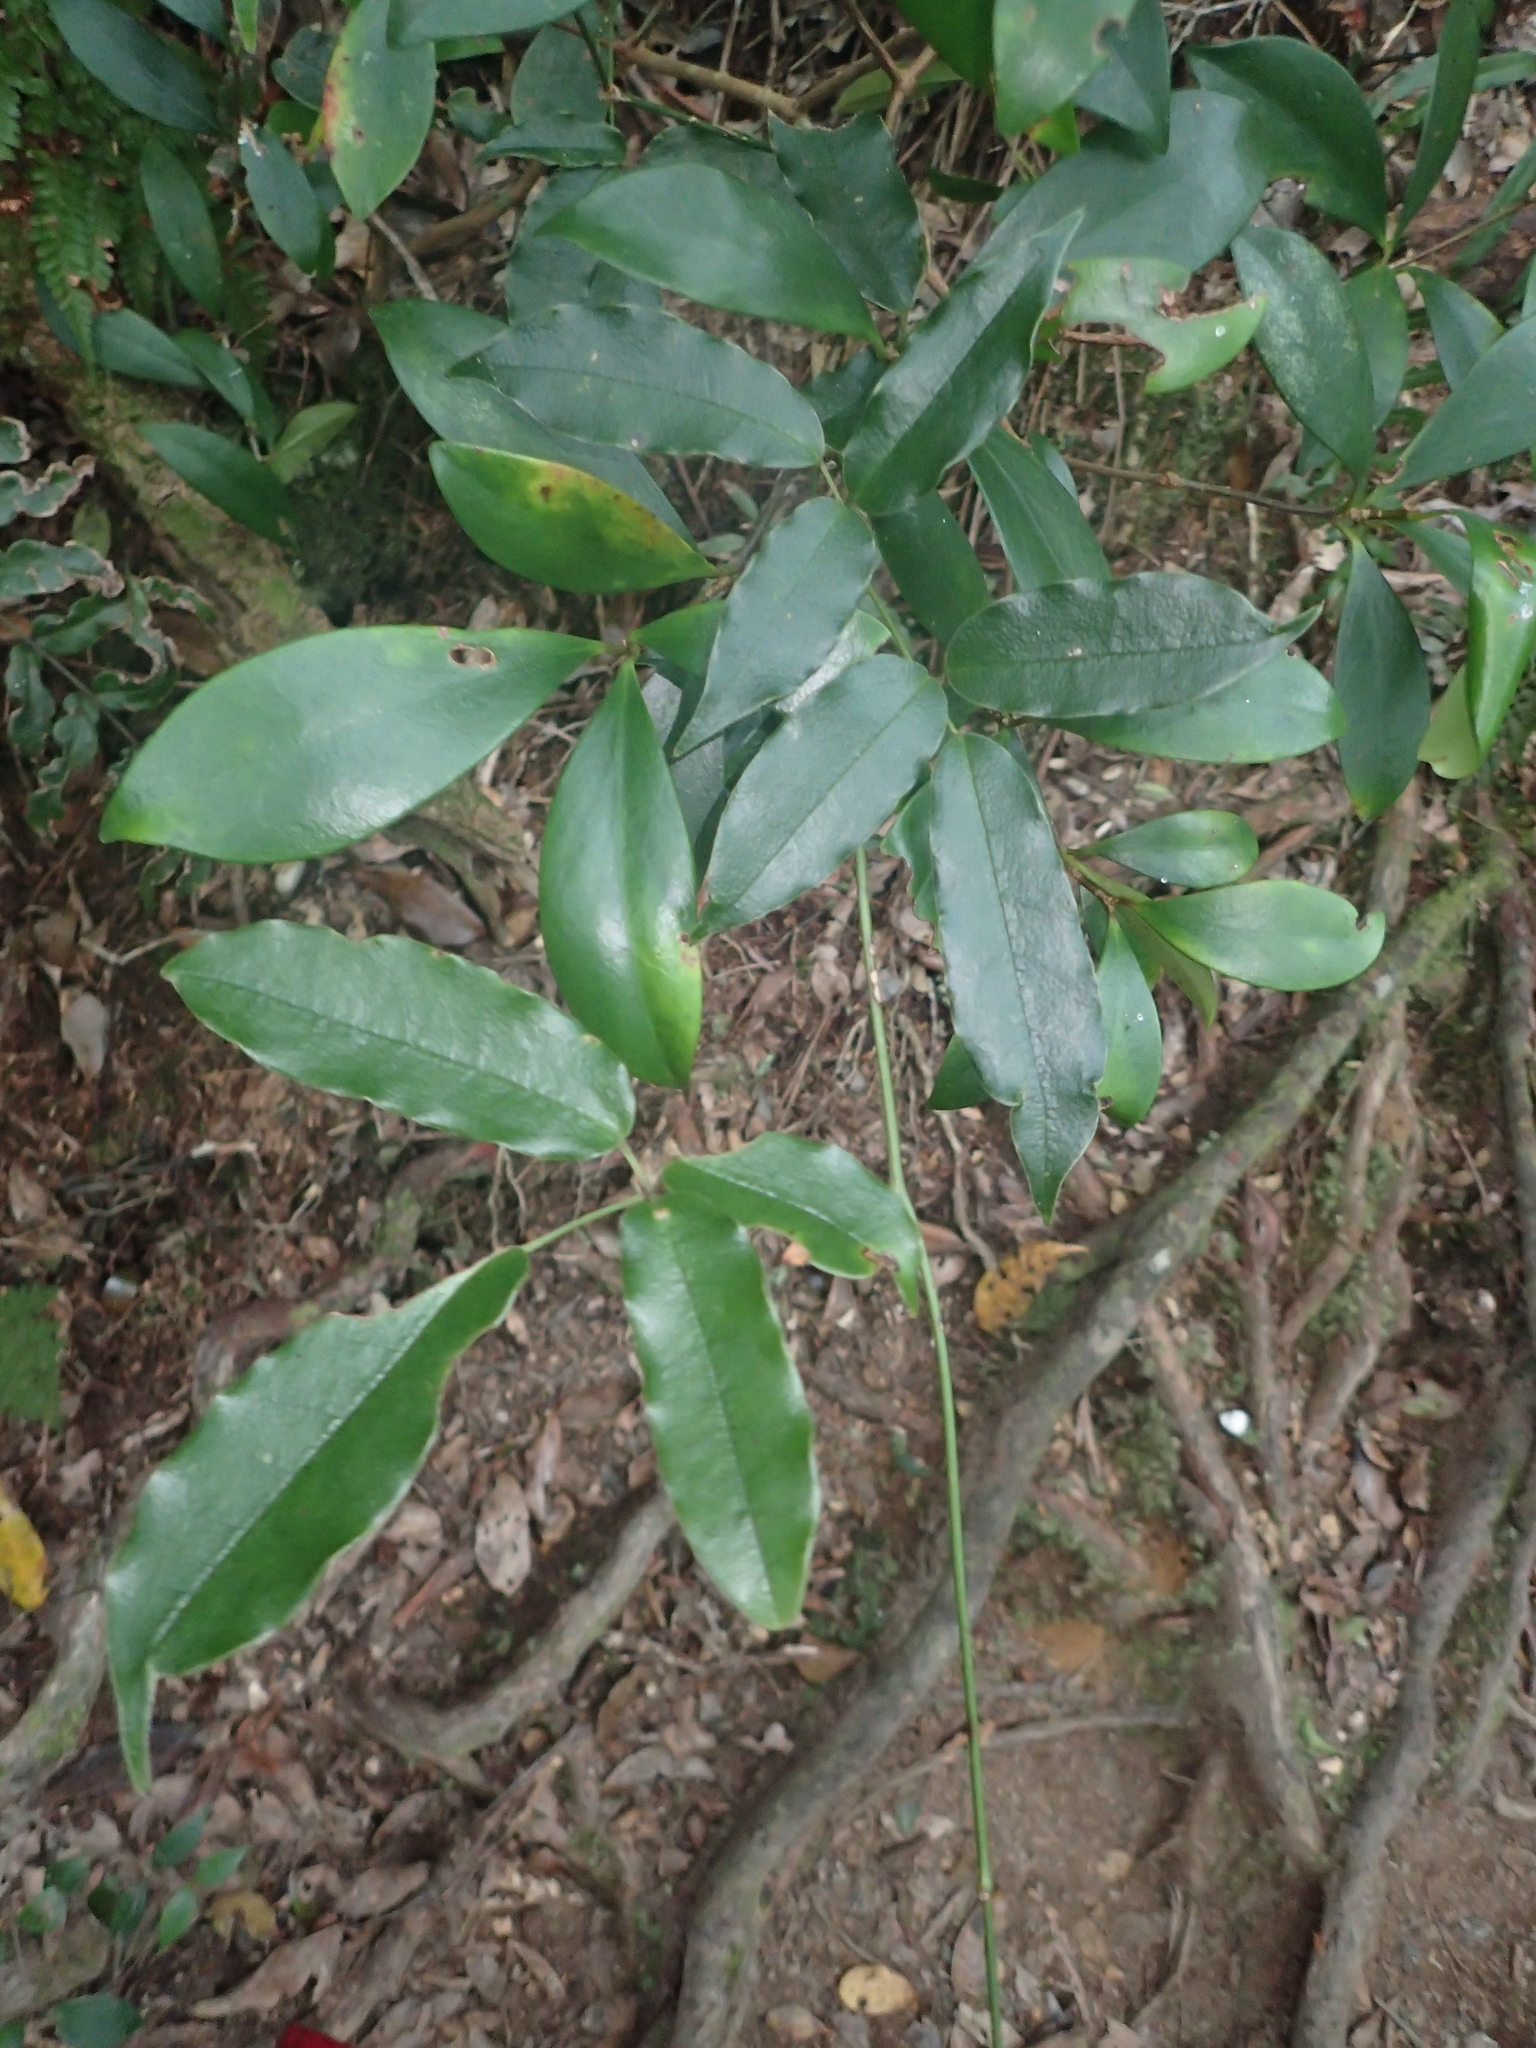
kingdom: Plantae
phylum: Tracheophyta
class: Magnoliopsida
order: Ranunculales
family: Lardizabalaceae
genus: Stauntonia
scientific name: Stauntonia purpurea
